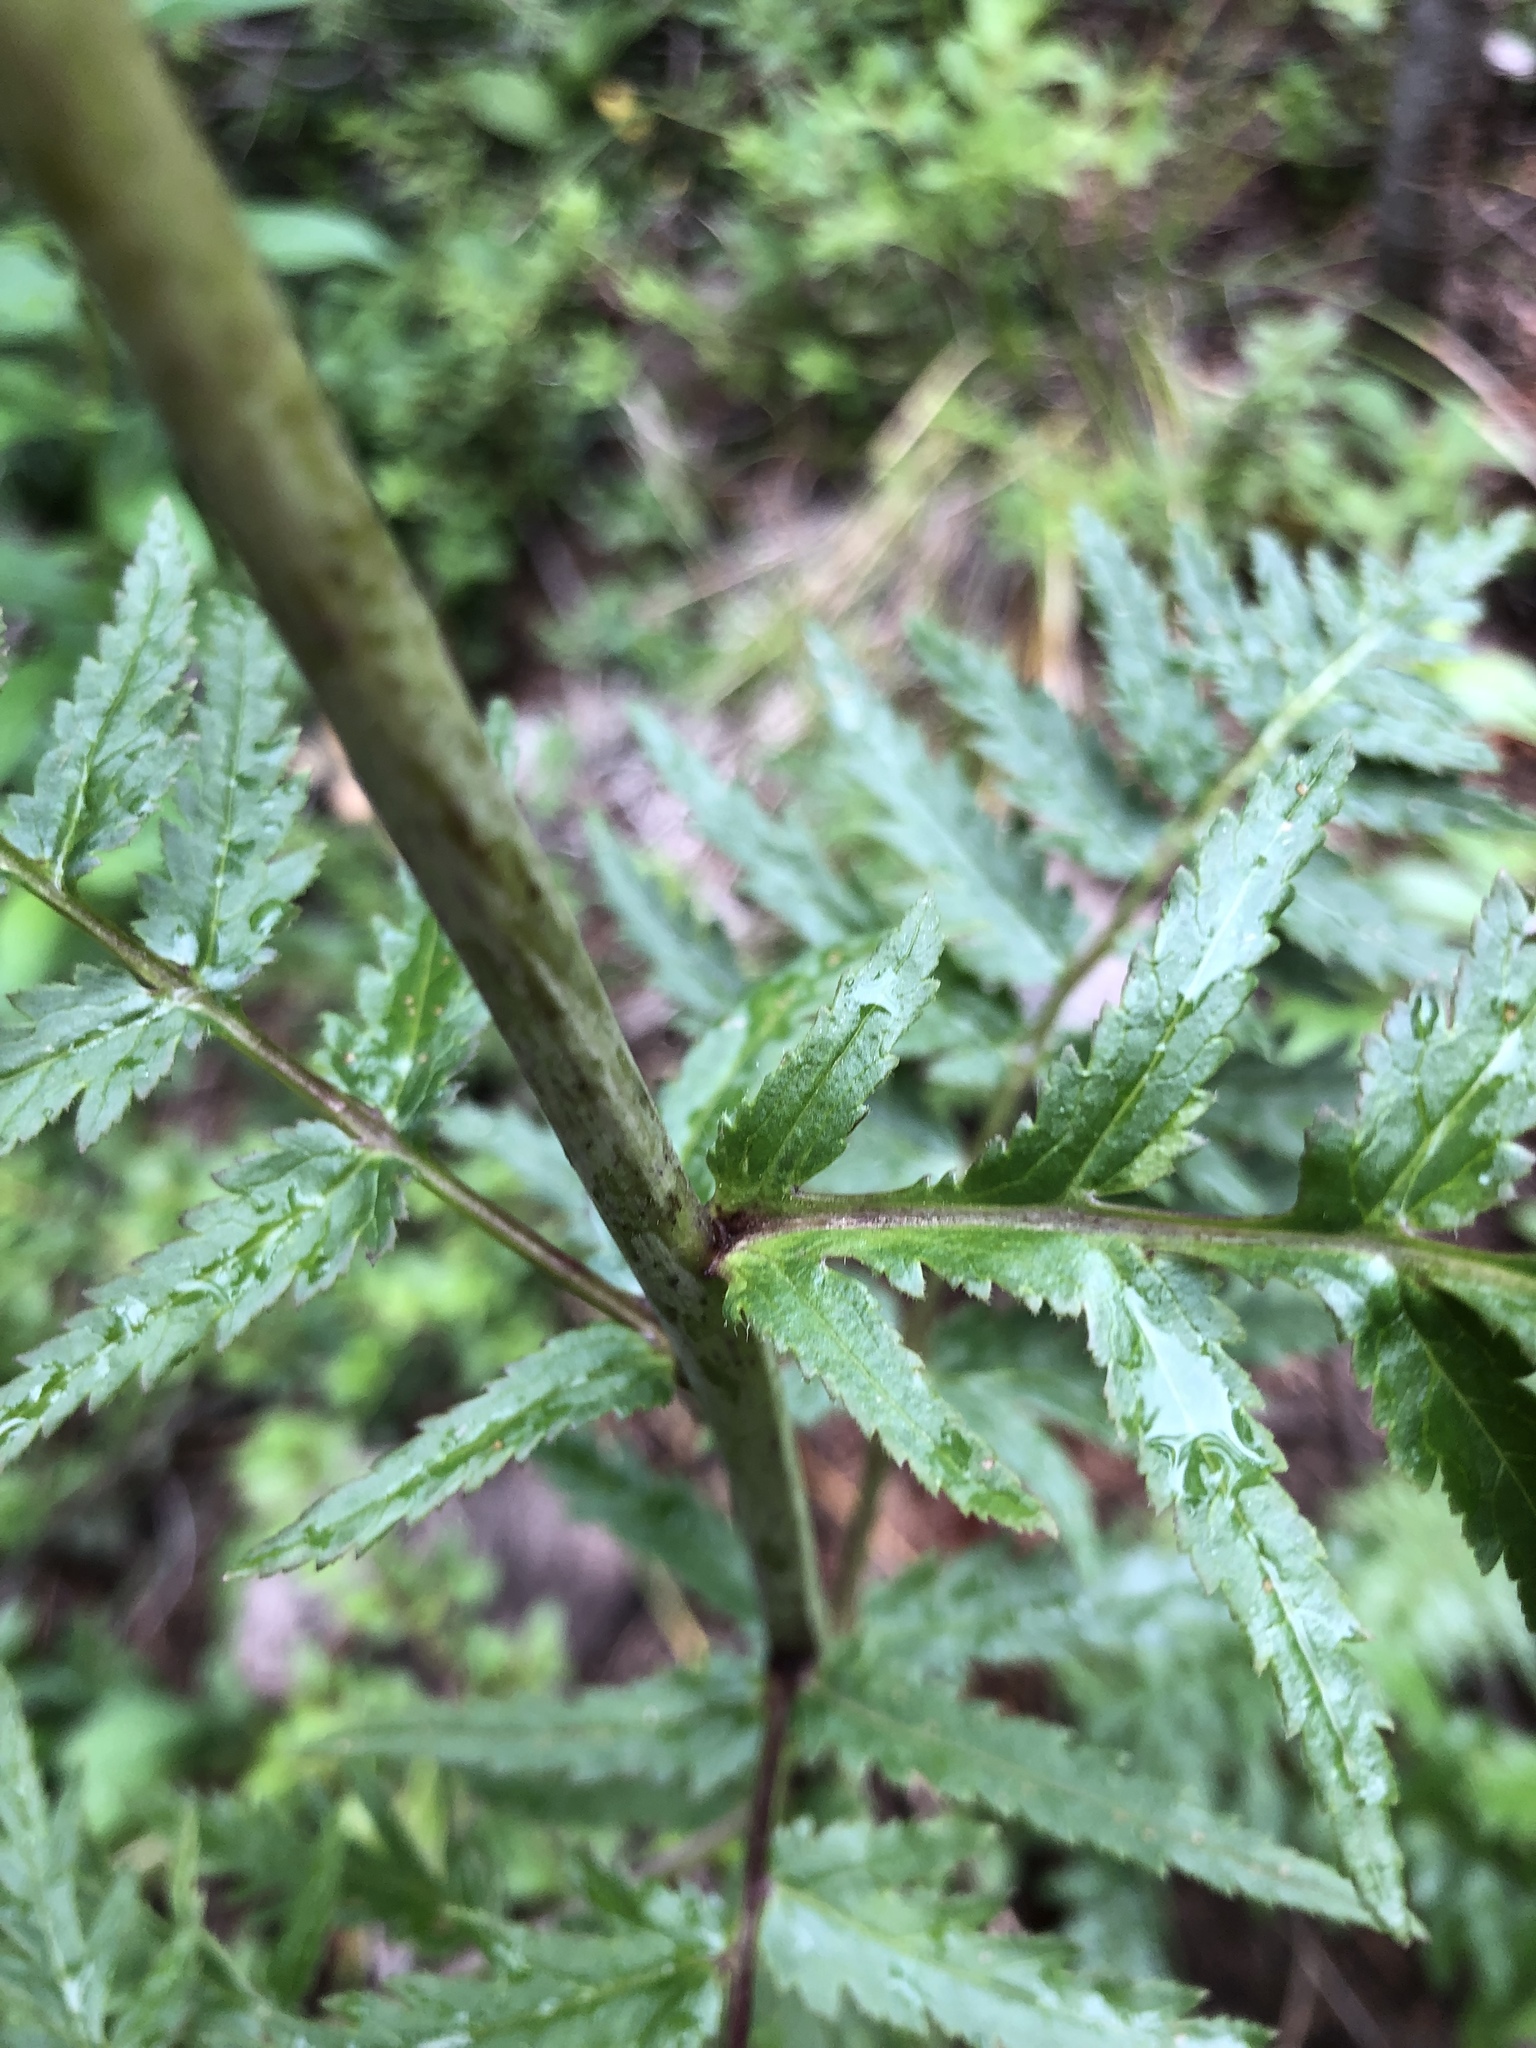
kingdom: Plantae
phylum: Tracheophyta
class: Magnoliopsida
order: Lamiales
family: Orobanchaceae
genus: Pedicularis
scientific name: Pedicularis bracteosa
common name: Bracted lousewort
